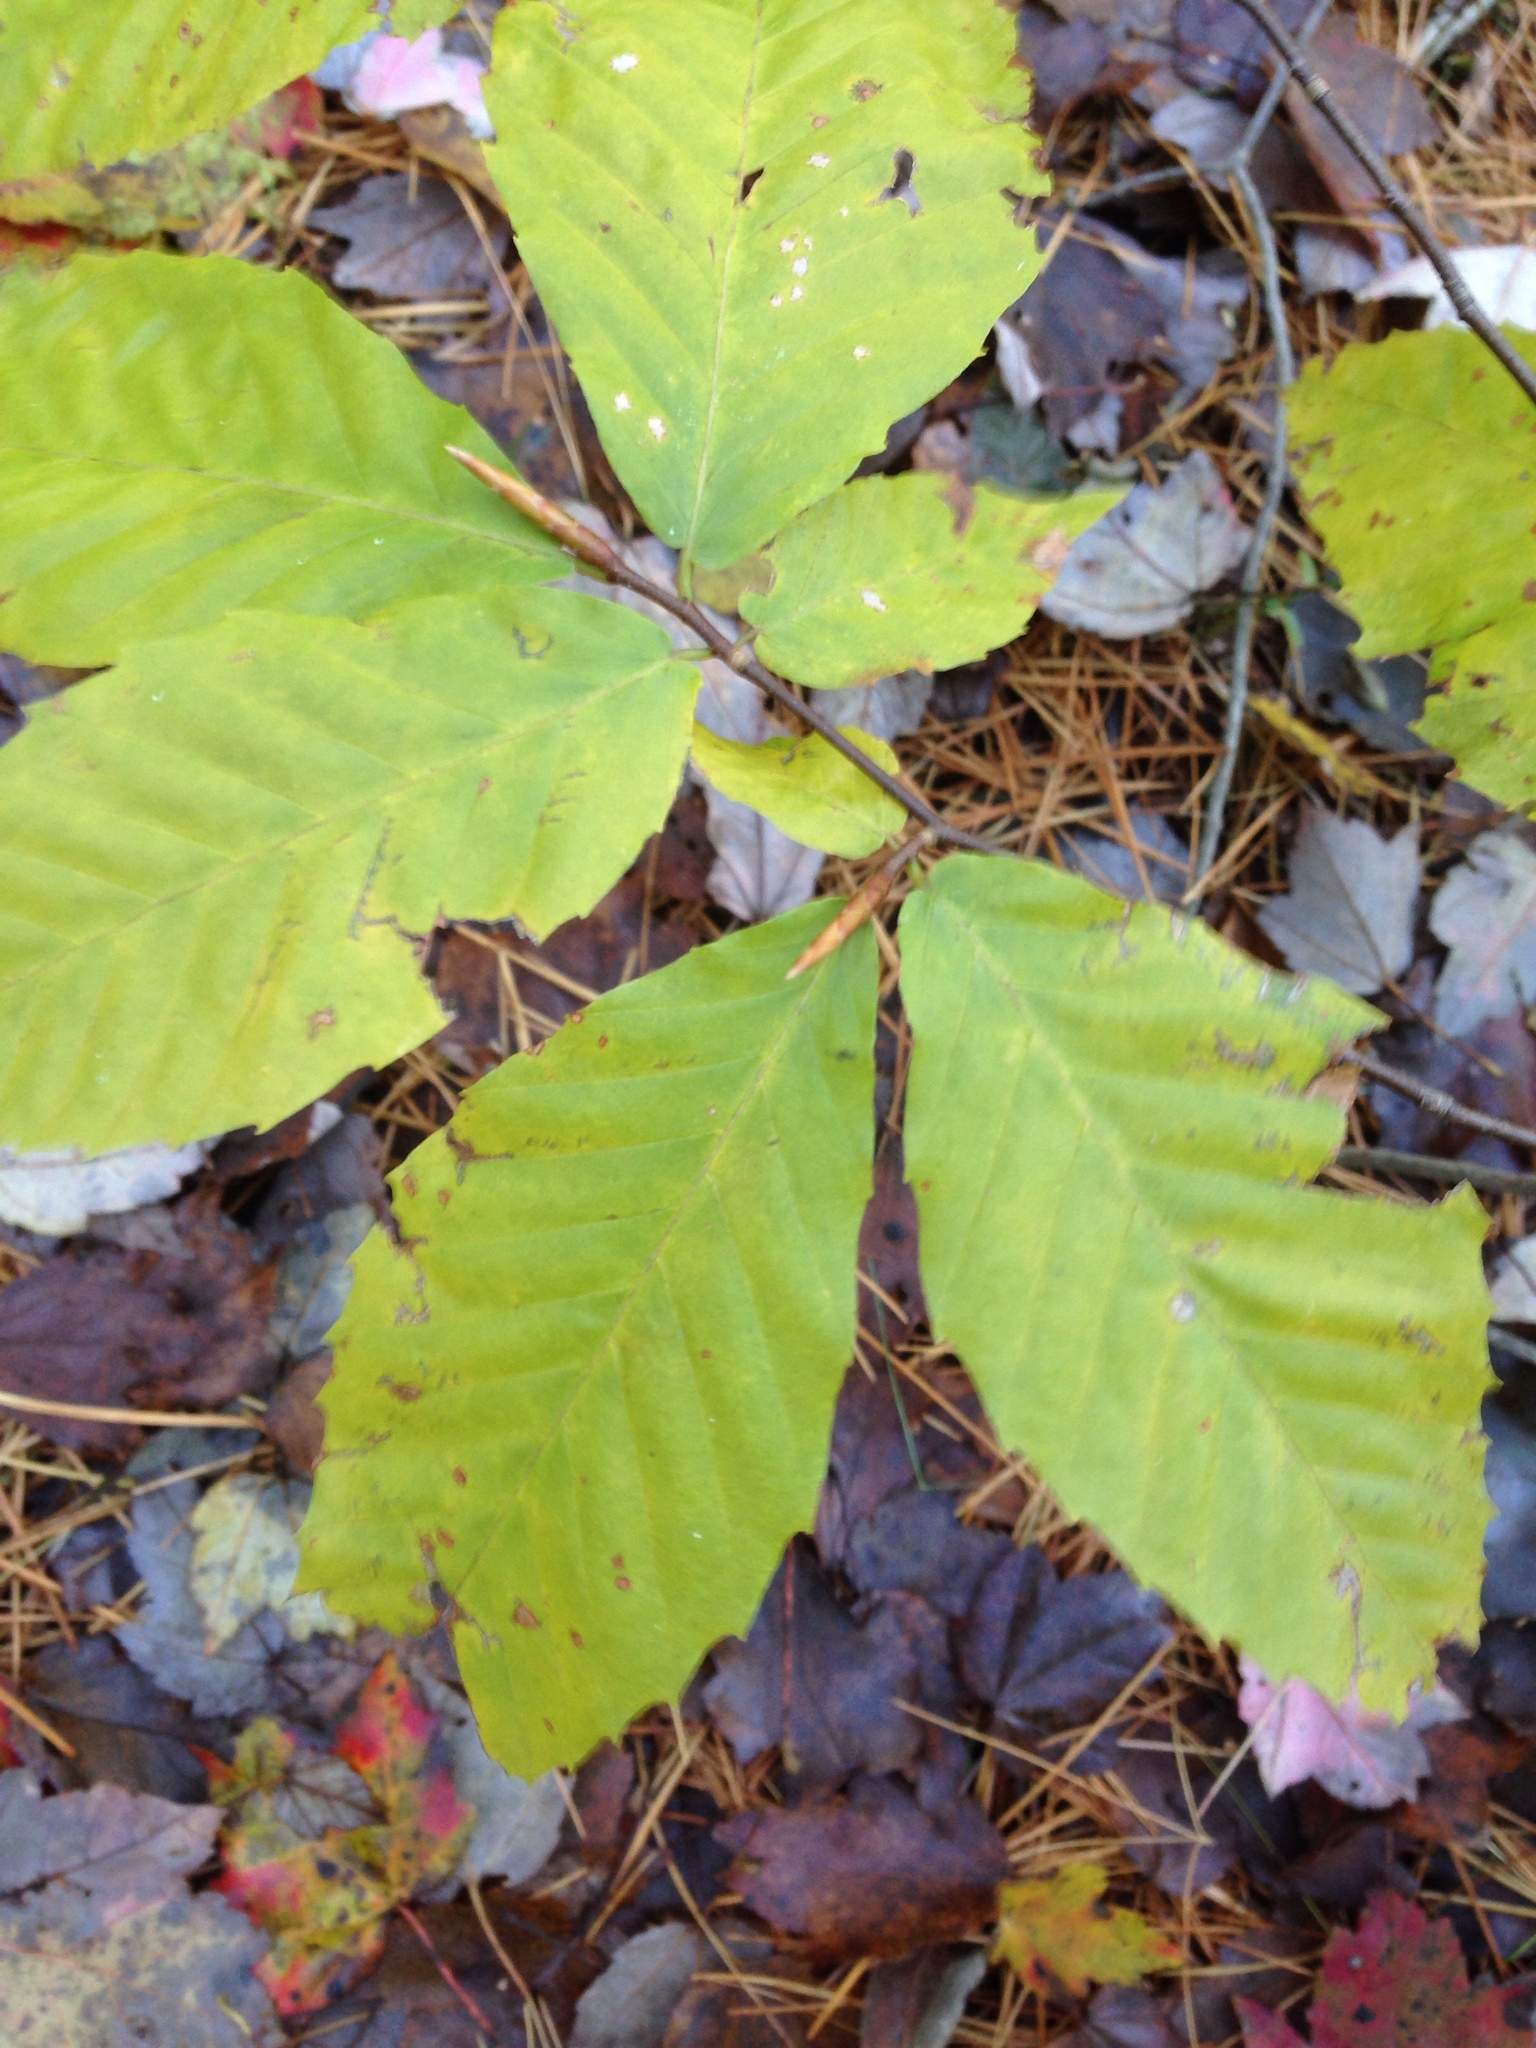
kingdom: Plantae
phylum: Tracheophyta
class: Magnoliopsida
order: Fagales
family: Fagaceae
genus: Fagus
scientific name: Fagus grandifolia
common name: American beech
